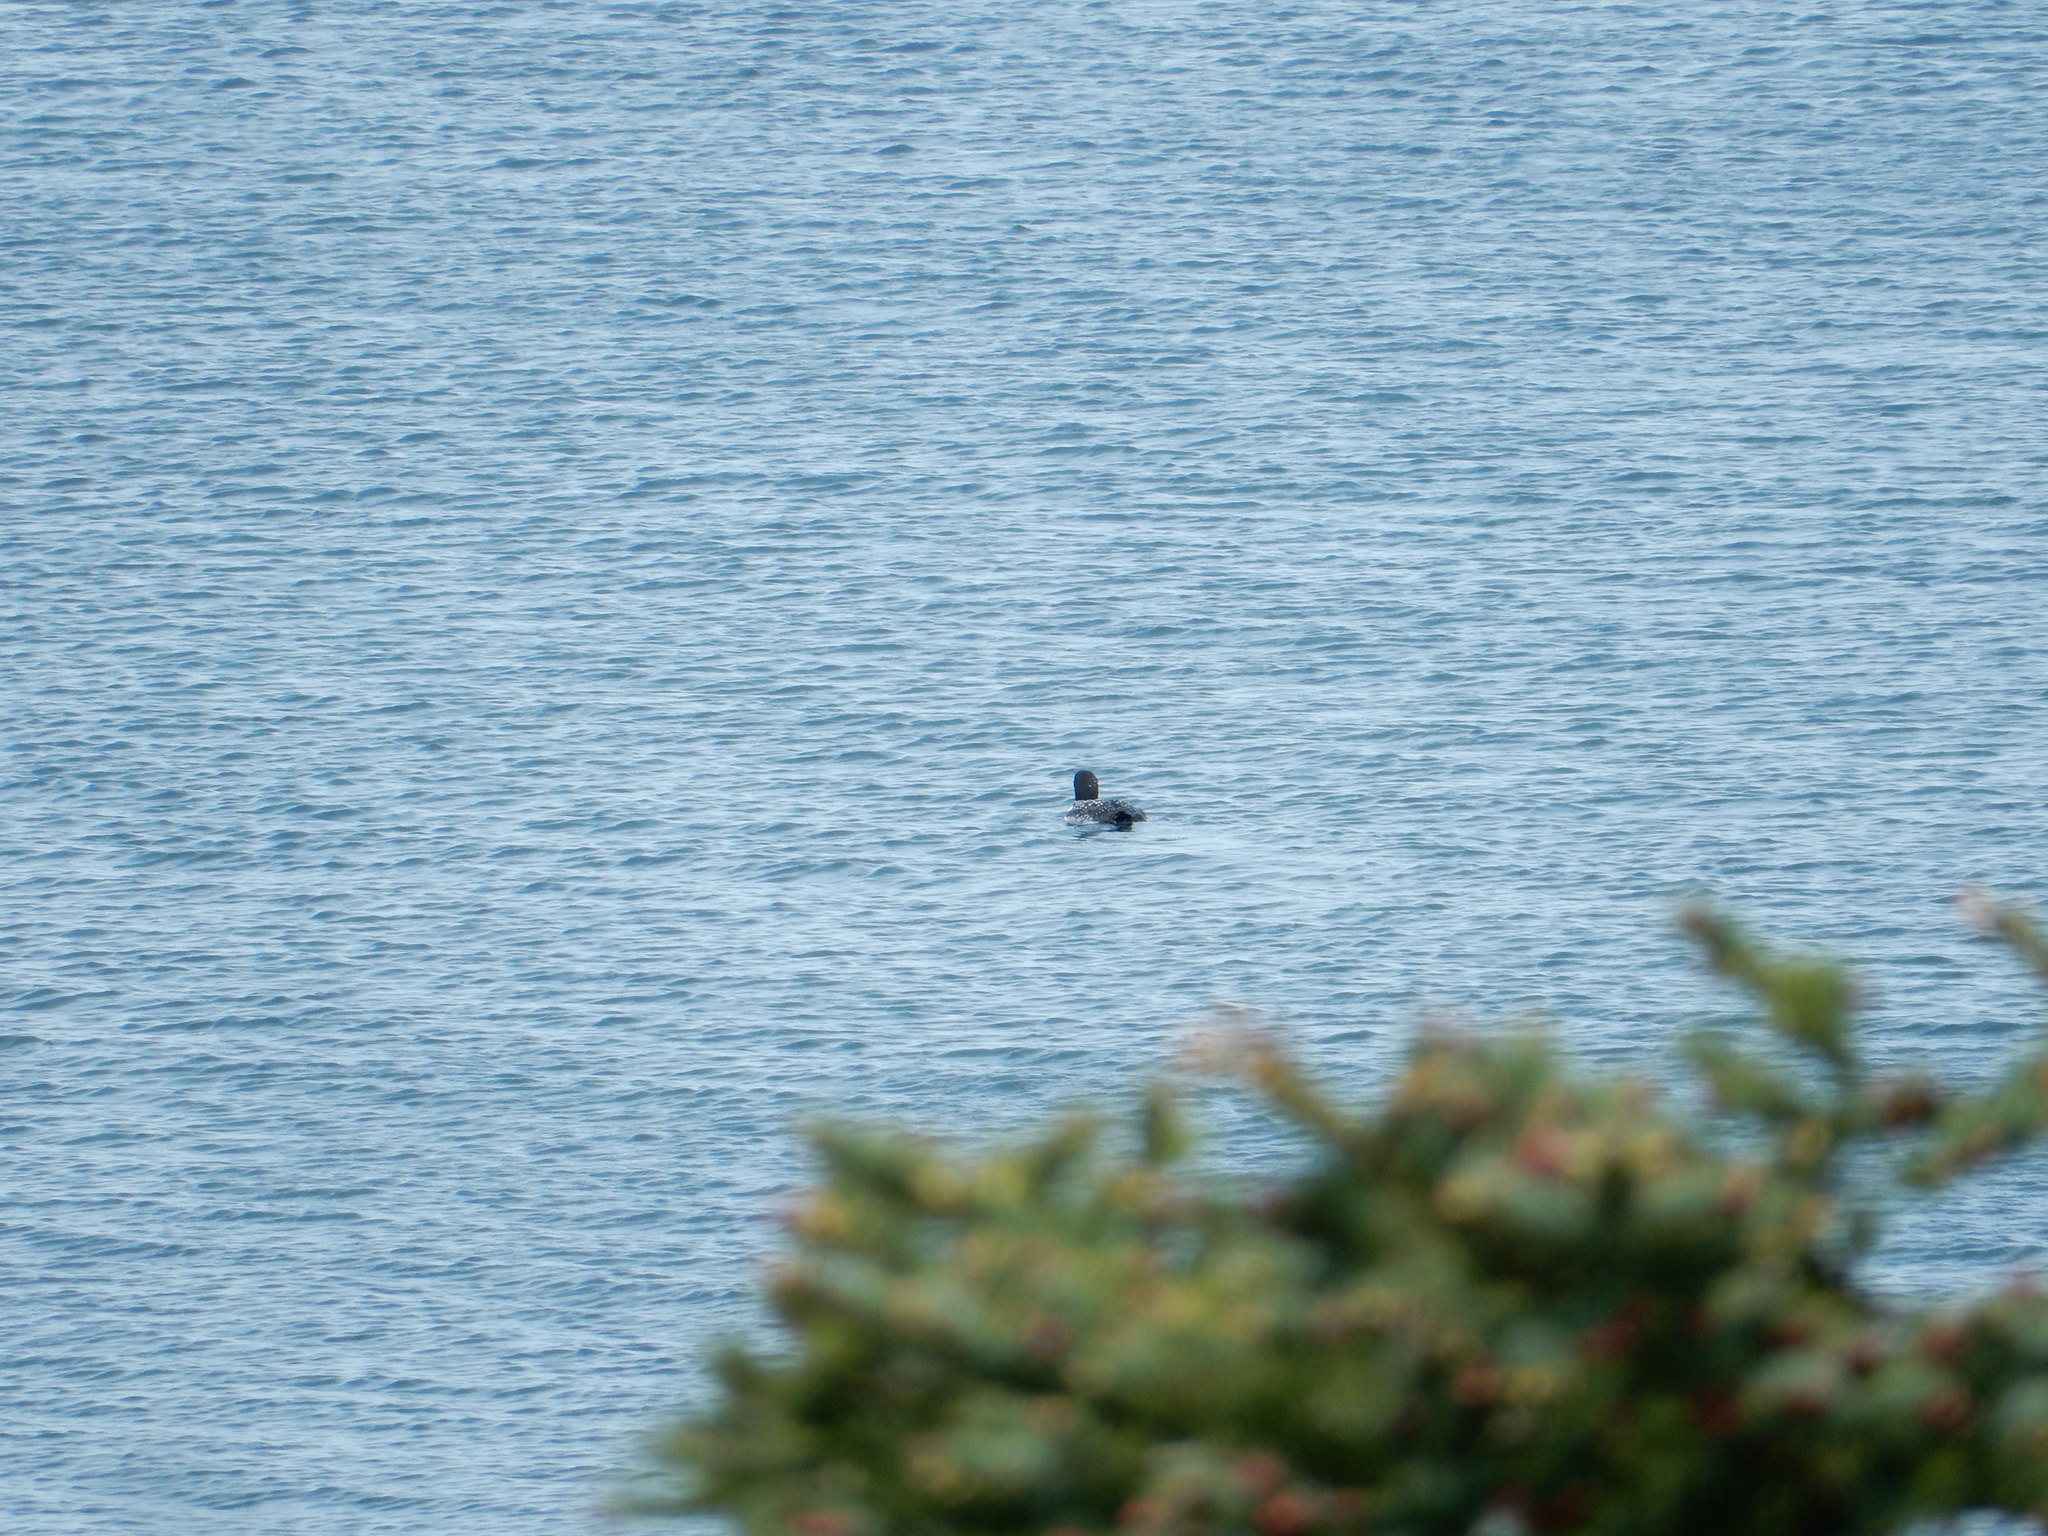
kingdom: Animalia
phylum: Chordata
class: Aves
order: Gaviiformes
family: Gaviidae
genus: Gavia
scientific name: Gavia immer
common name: Common loon
